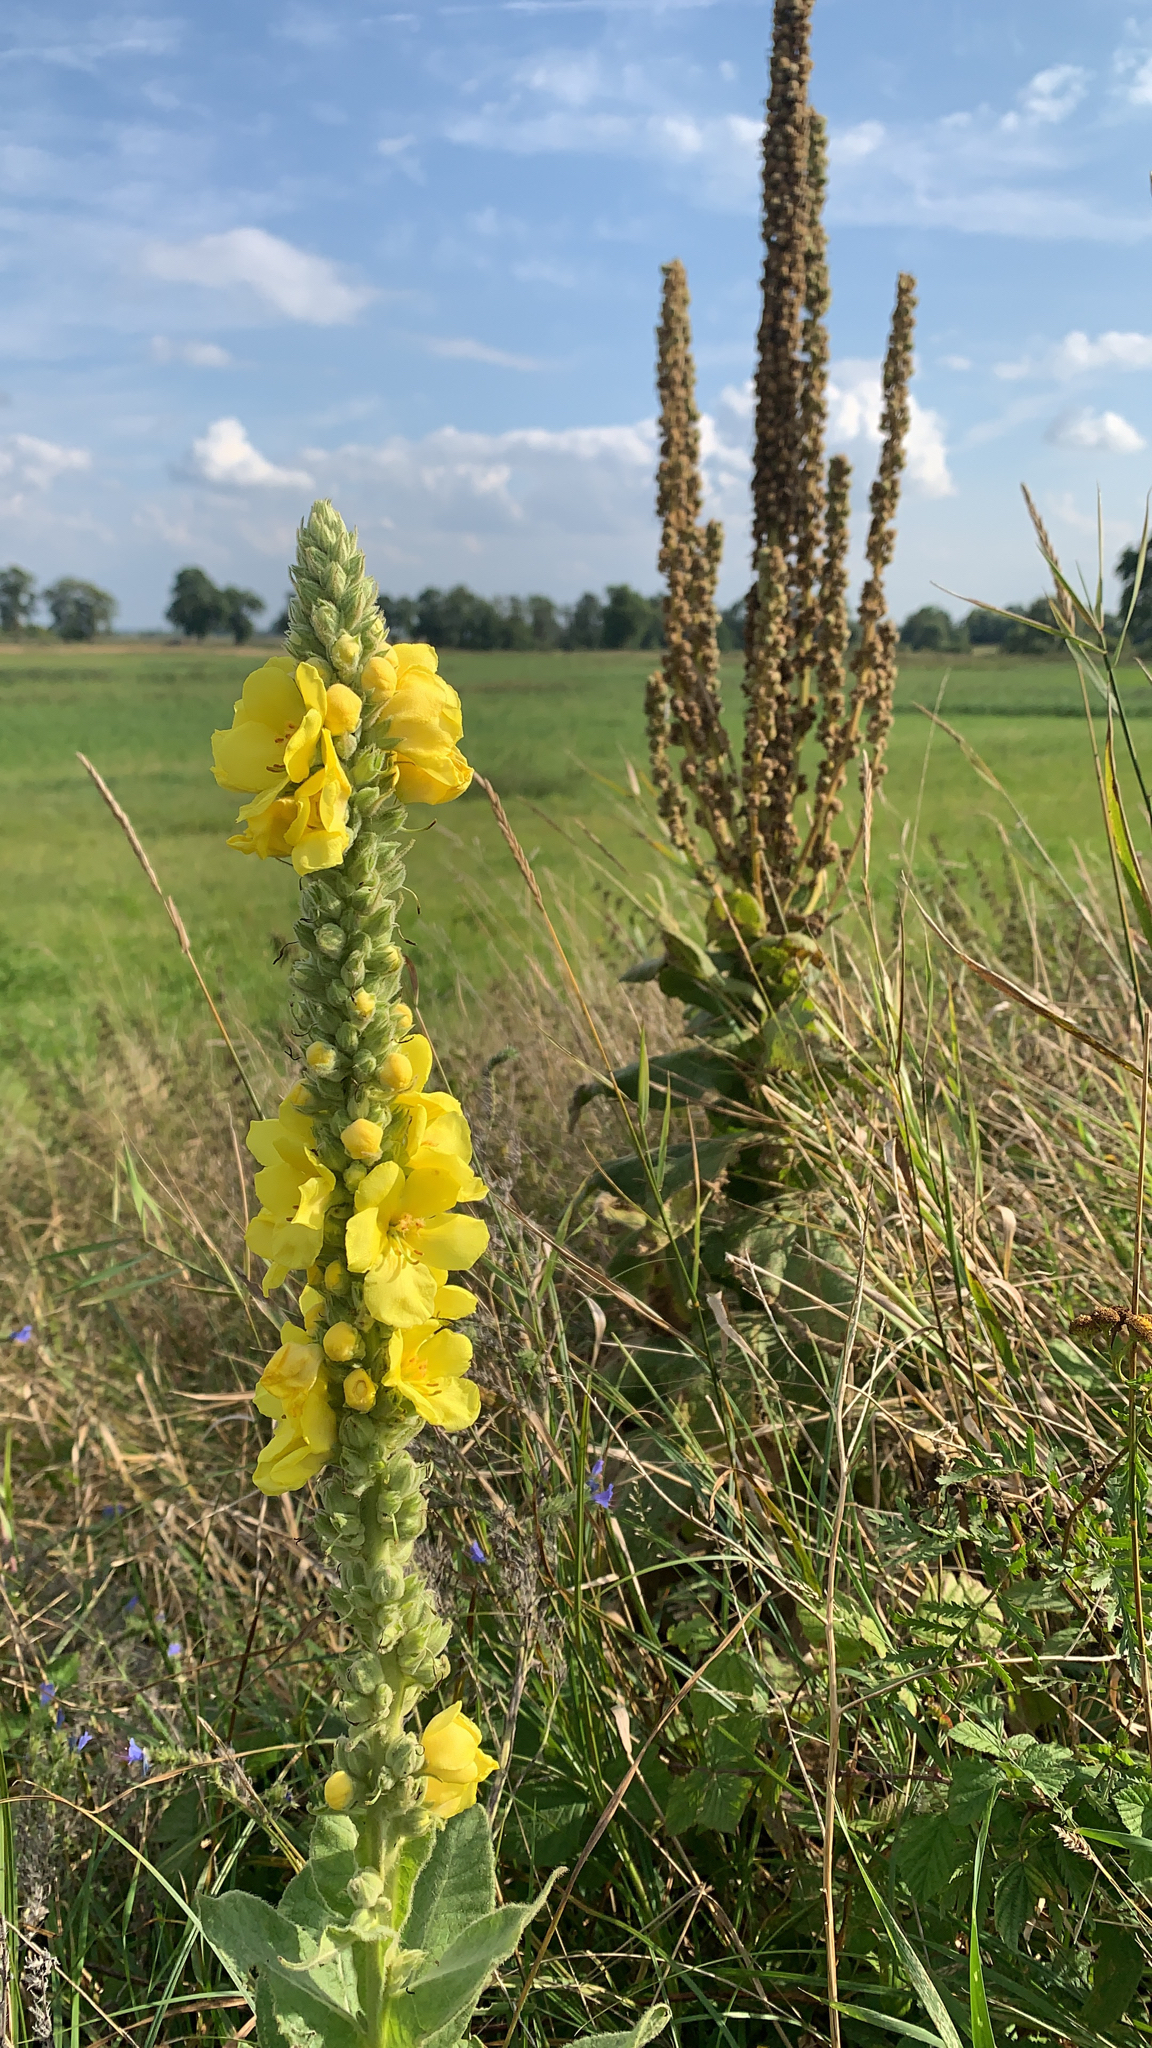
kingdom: Plantae
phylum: Tracheophyta
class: Magnoliopsida
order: Lamiales
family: Scrophulariaceae
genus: Verbascum
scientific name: Verbascum densiflorum
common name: Dense-flowered mullein
